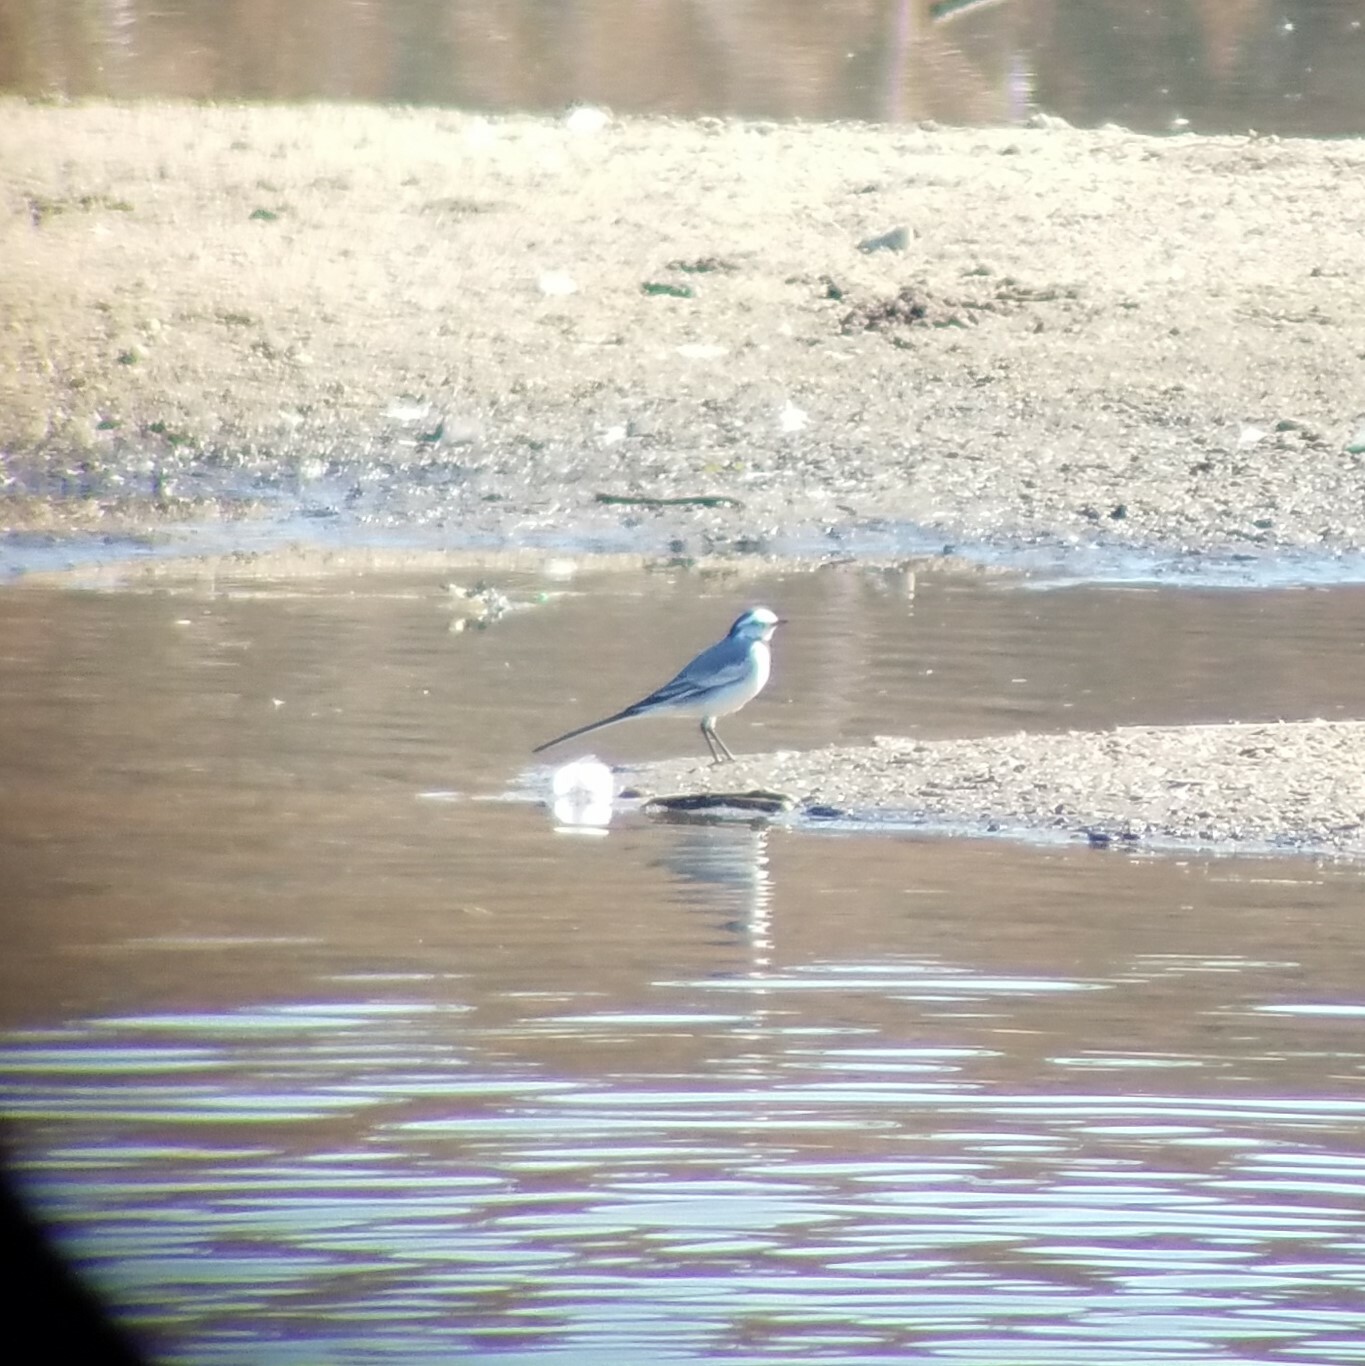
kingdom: Animalia
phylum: Chordata
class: Aves
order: Passeriformes
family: Motacillidae
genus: Motacilla
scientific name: Motacilla alba
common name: White wagtail
